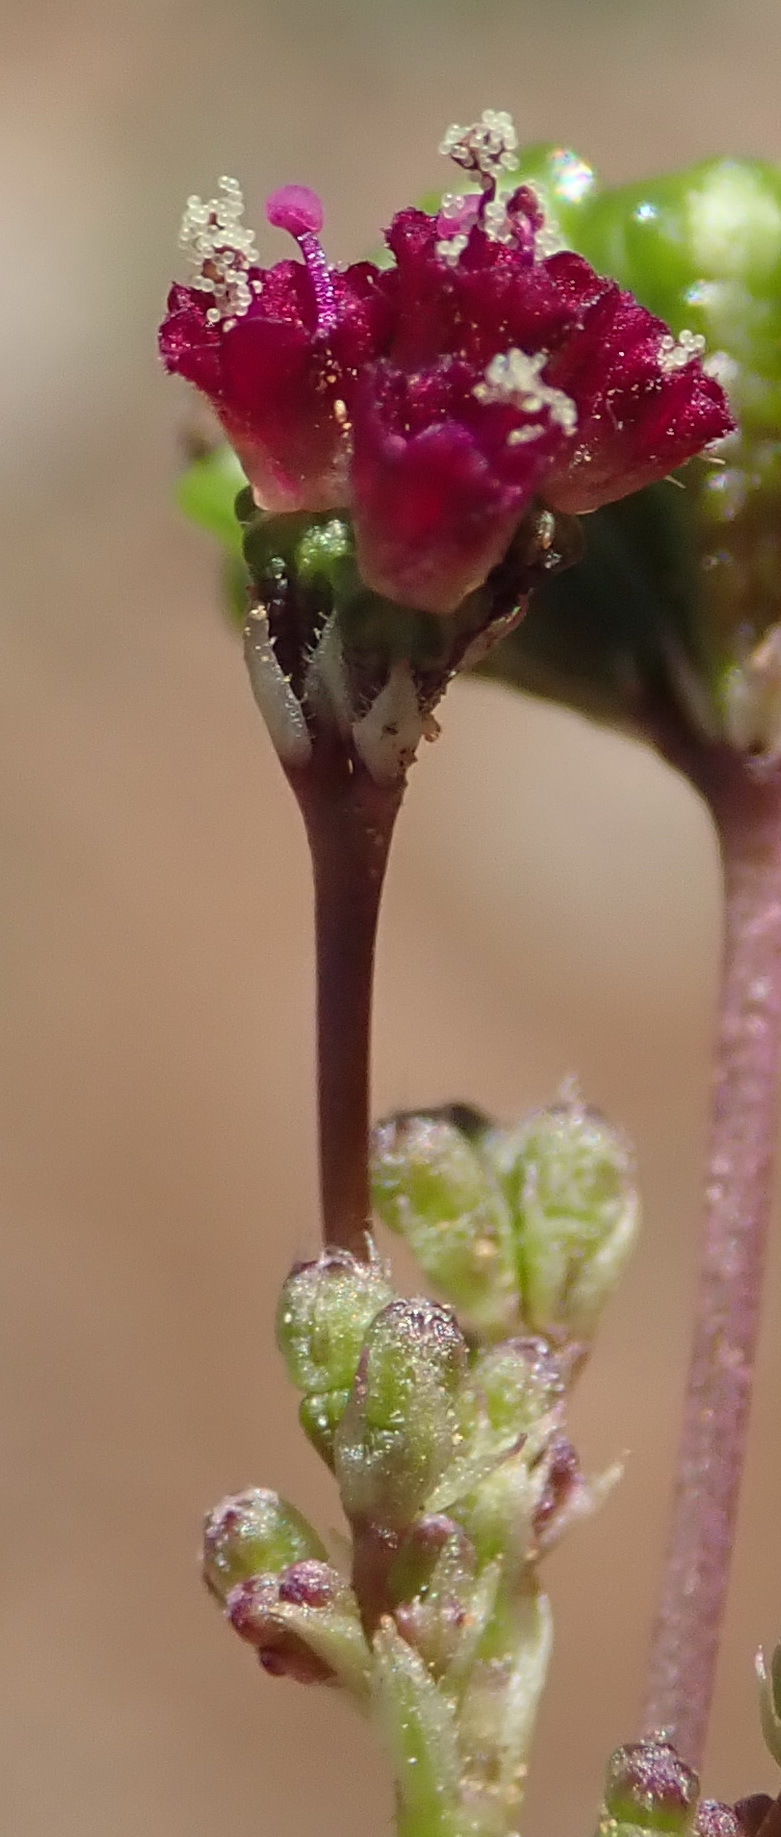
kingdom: Plantae
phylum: Tracheophyta
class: Magnoliopsida
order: Caryophyllales
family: Nyctaginaceae
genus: Boerhavia
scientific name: Boerhavia erecta
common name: Erect spiderling
